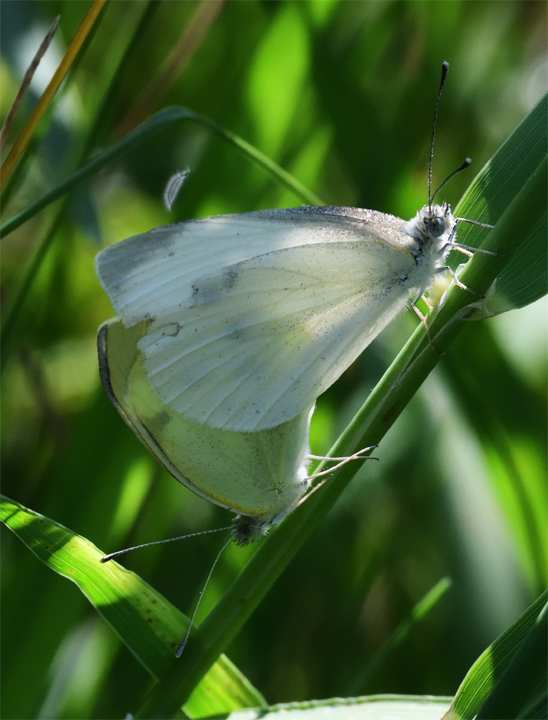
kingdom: Animalia
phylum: Arthropoda
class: Insecta
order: Lepidoptera
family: Pieridae
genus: Pieris
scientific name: Pieris rapae
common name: Small white
